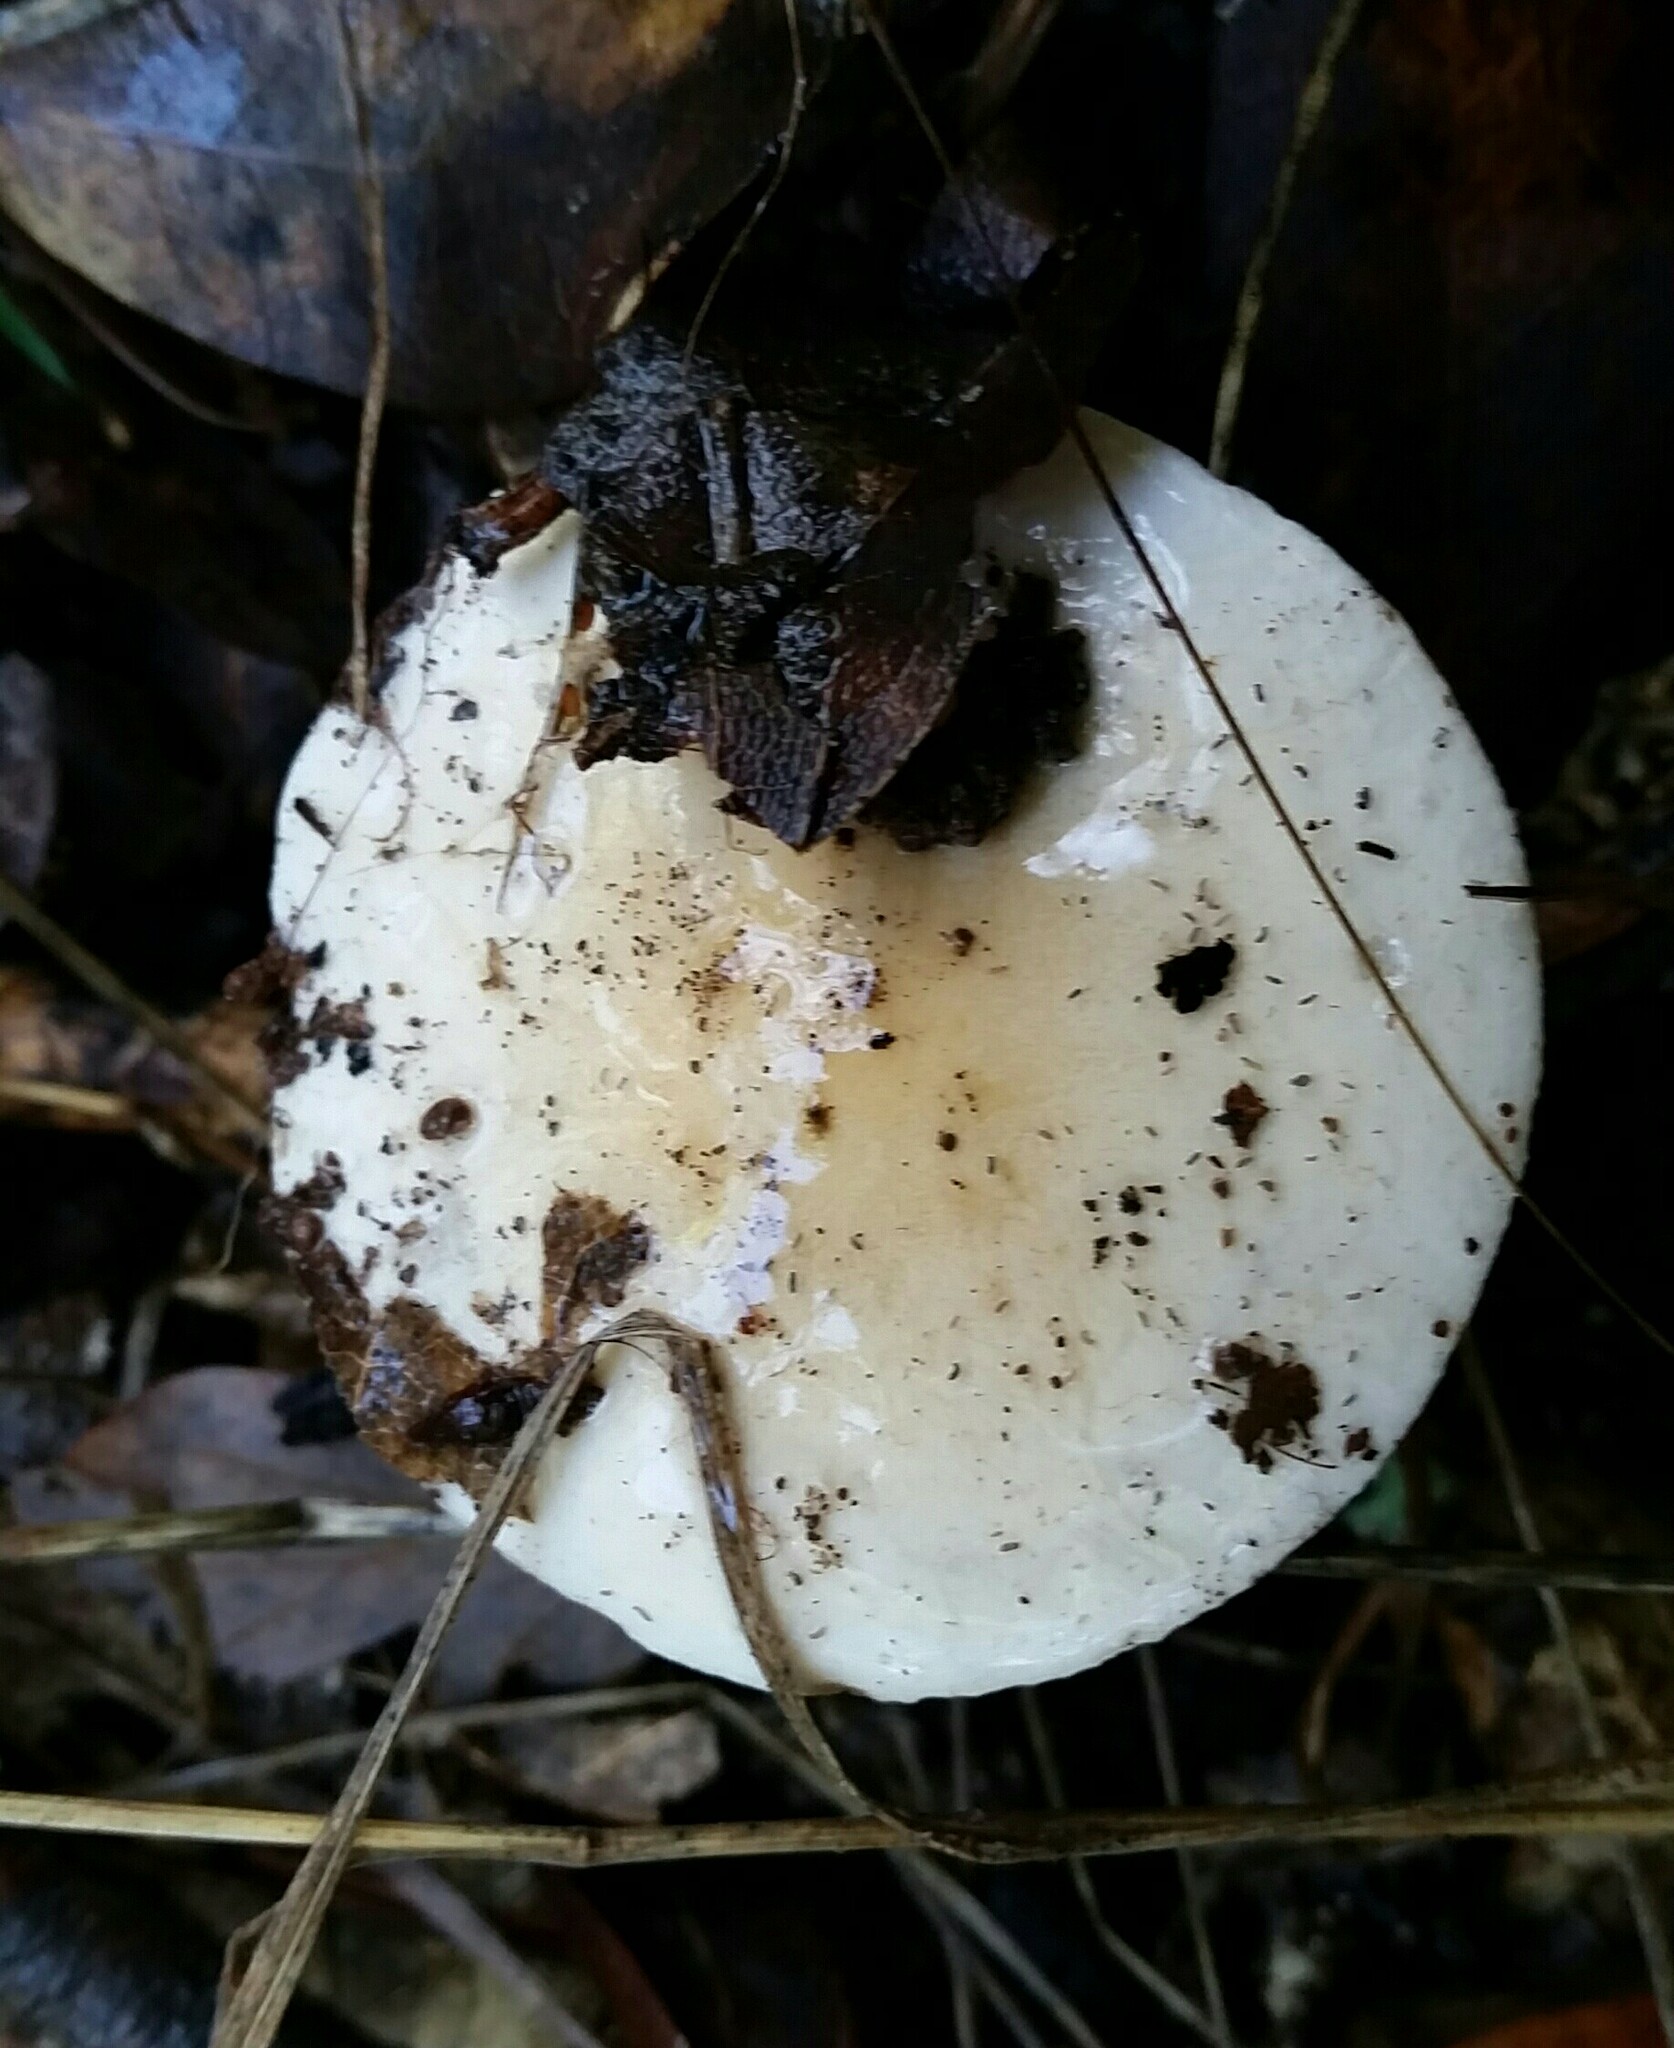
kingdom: Fungi
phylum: Basidiomycota
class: Agaricomycetes
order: Agaricales
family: Hygrophoraceae
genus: Hygrophorus
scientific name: Hygrophorus eburneus
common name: Ivory wax-cap
